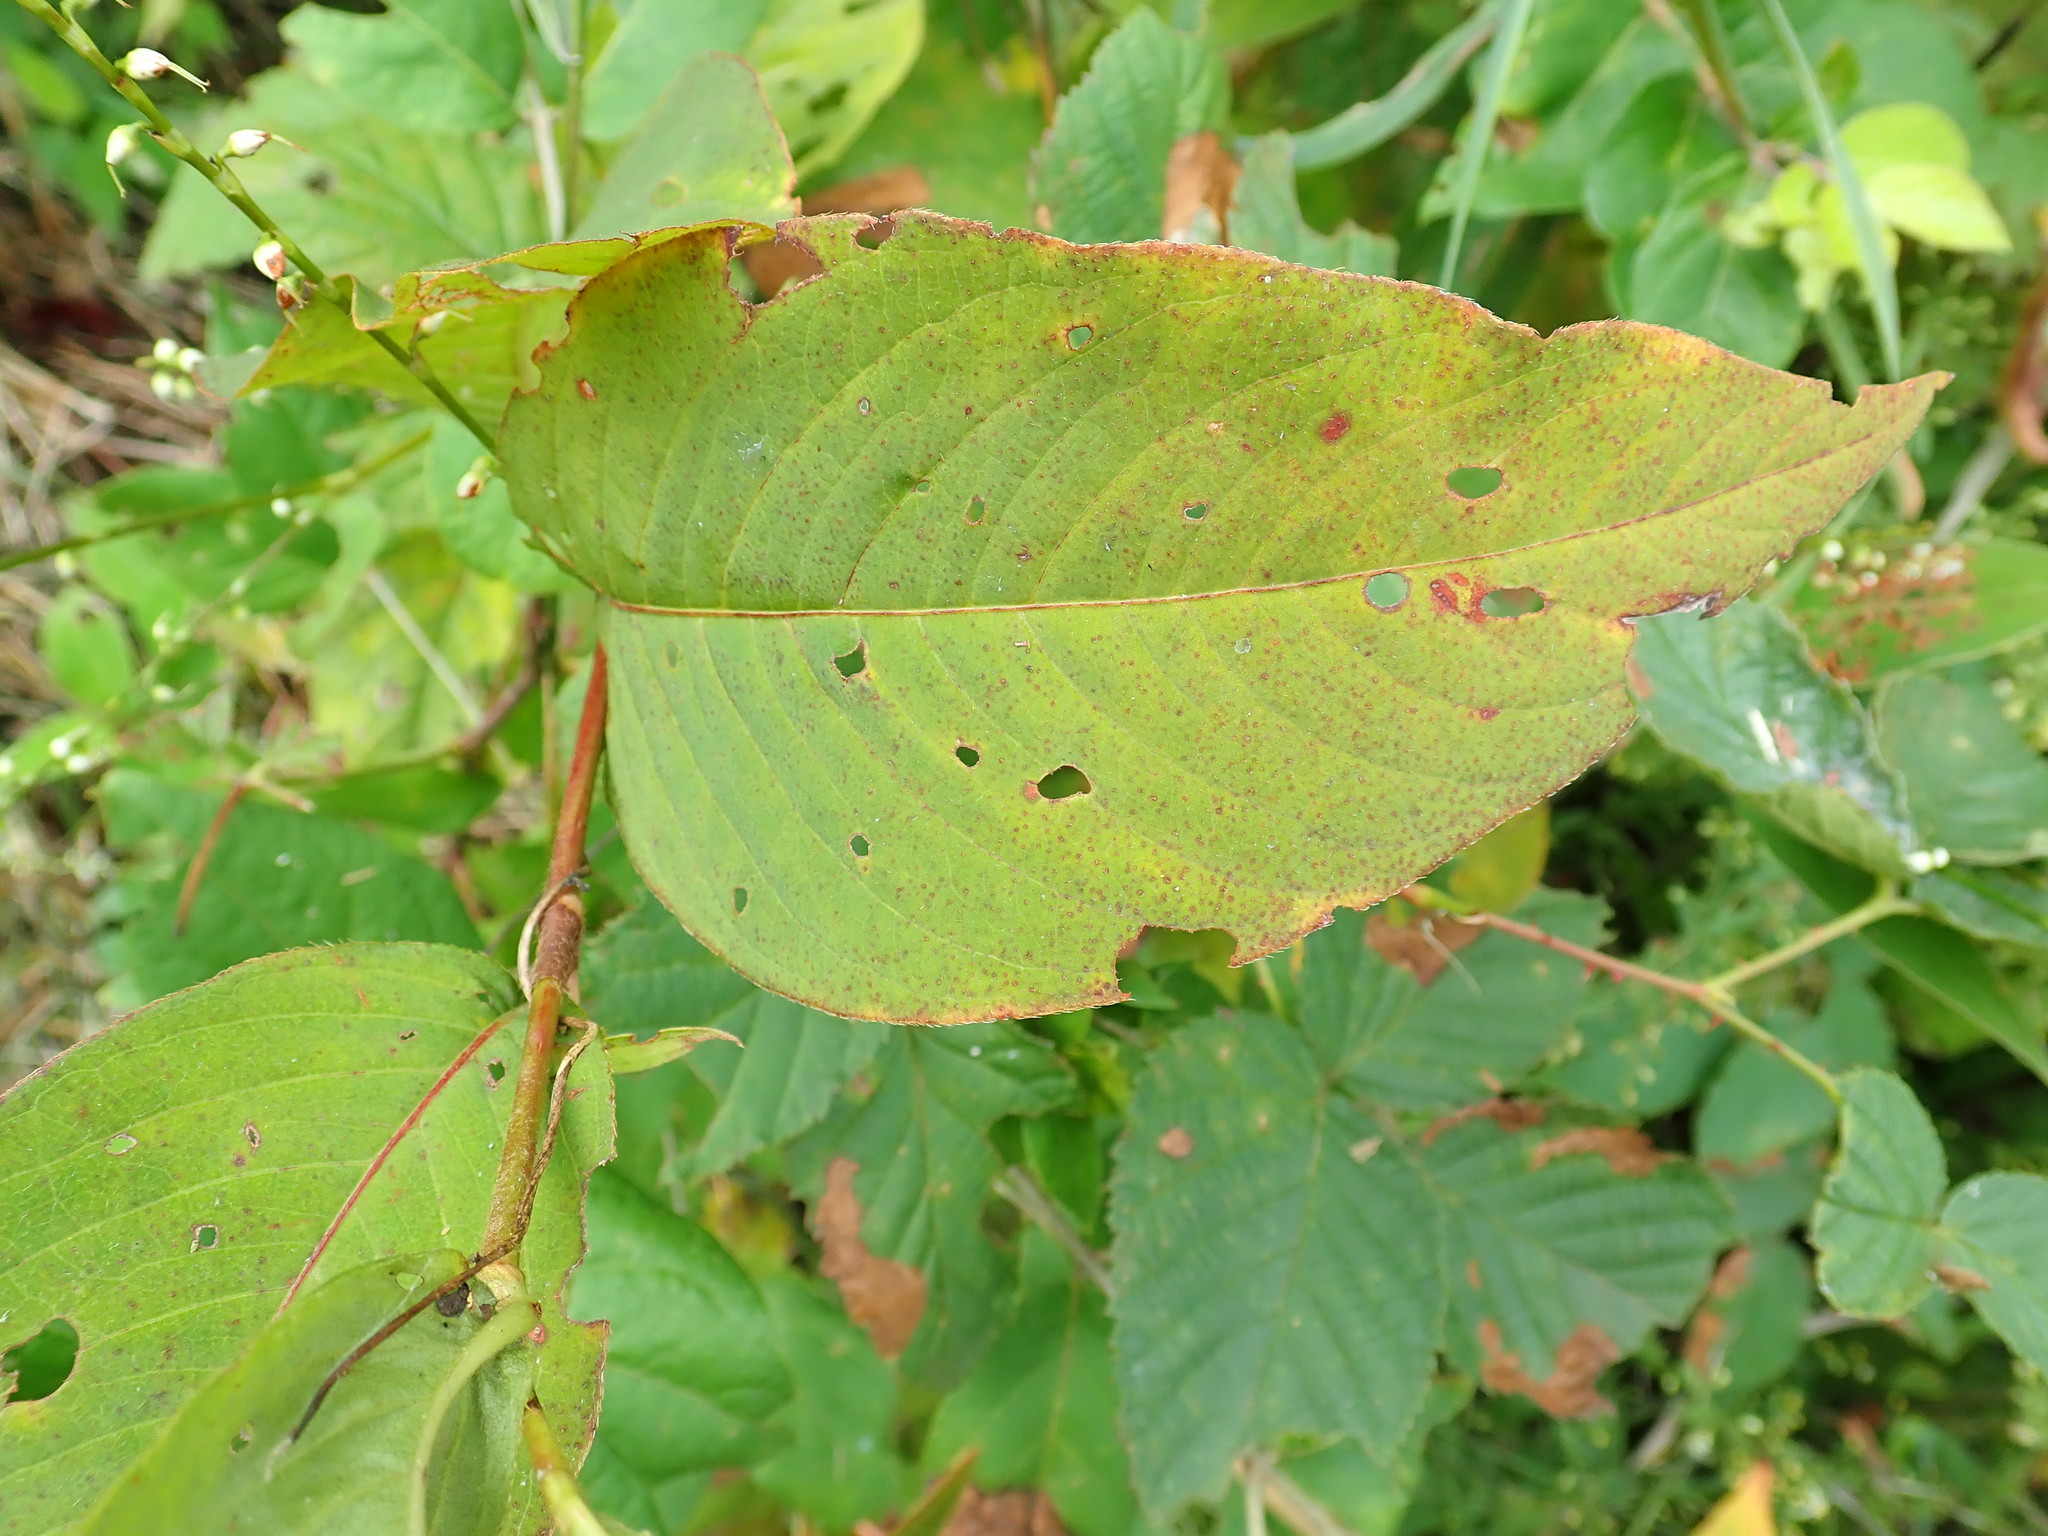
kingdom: Plantae
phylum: Tracheophyta
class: Magnoliopsida
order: Caryophyllales
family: Polygonaceae
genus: Persicaria
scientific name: Persicaria virginiana
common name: Jumpseed
